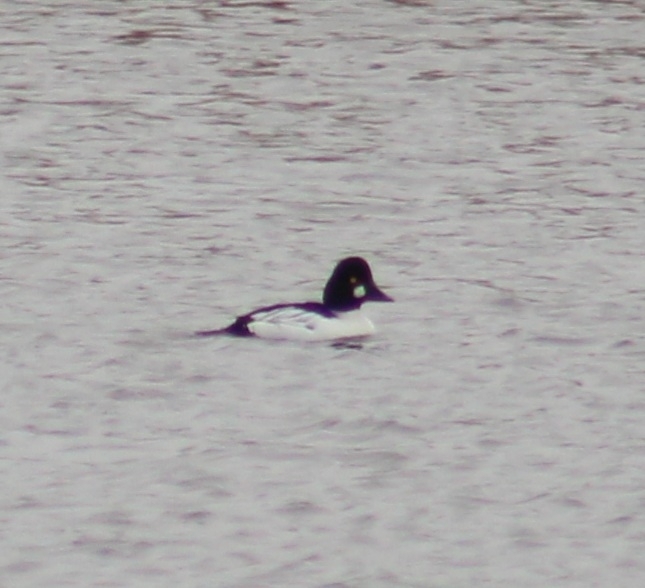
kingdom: Animalia
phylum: Chordata
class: Aves
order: Anseriformes
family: Anatidae
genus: Bucephala
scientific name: Bucephala clangula
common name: Common goldeneye
